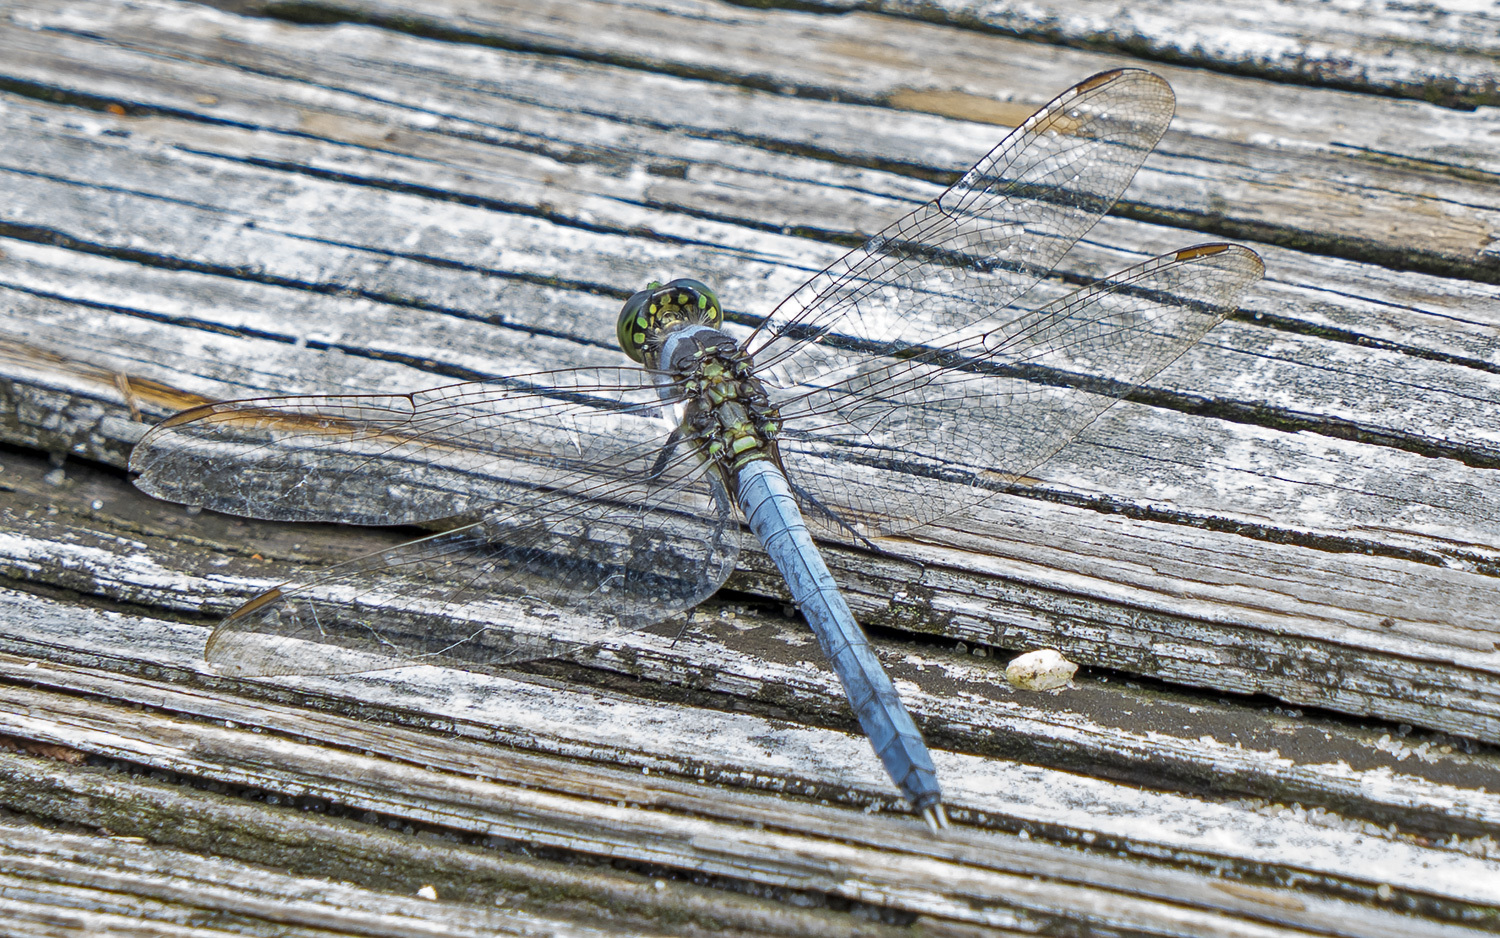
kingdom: Animalia
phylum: Arthropoda
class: Insecta
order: Odonata
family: Libellulidae
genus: Erythemis
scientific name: Erythemis simplicicollis
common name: Eastern pondhawk
